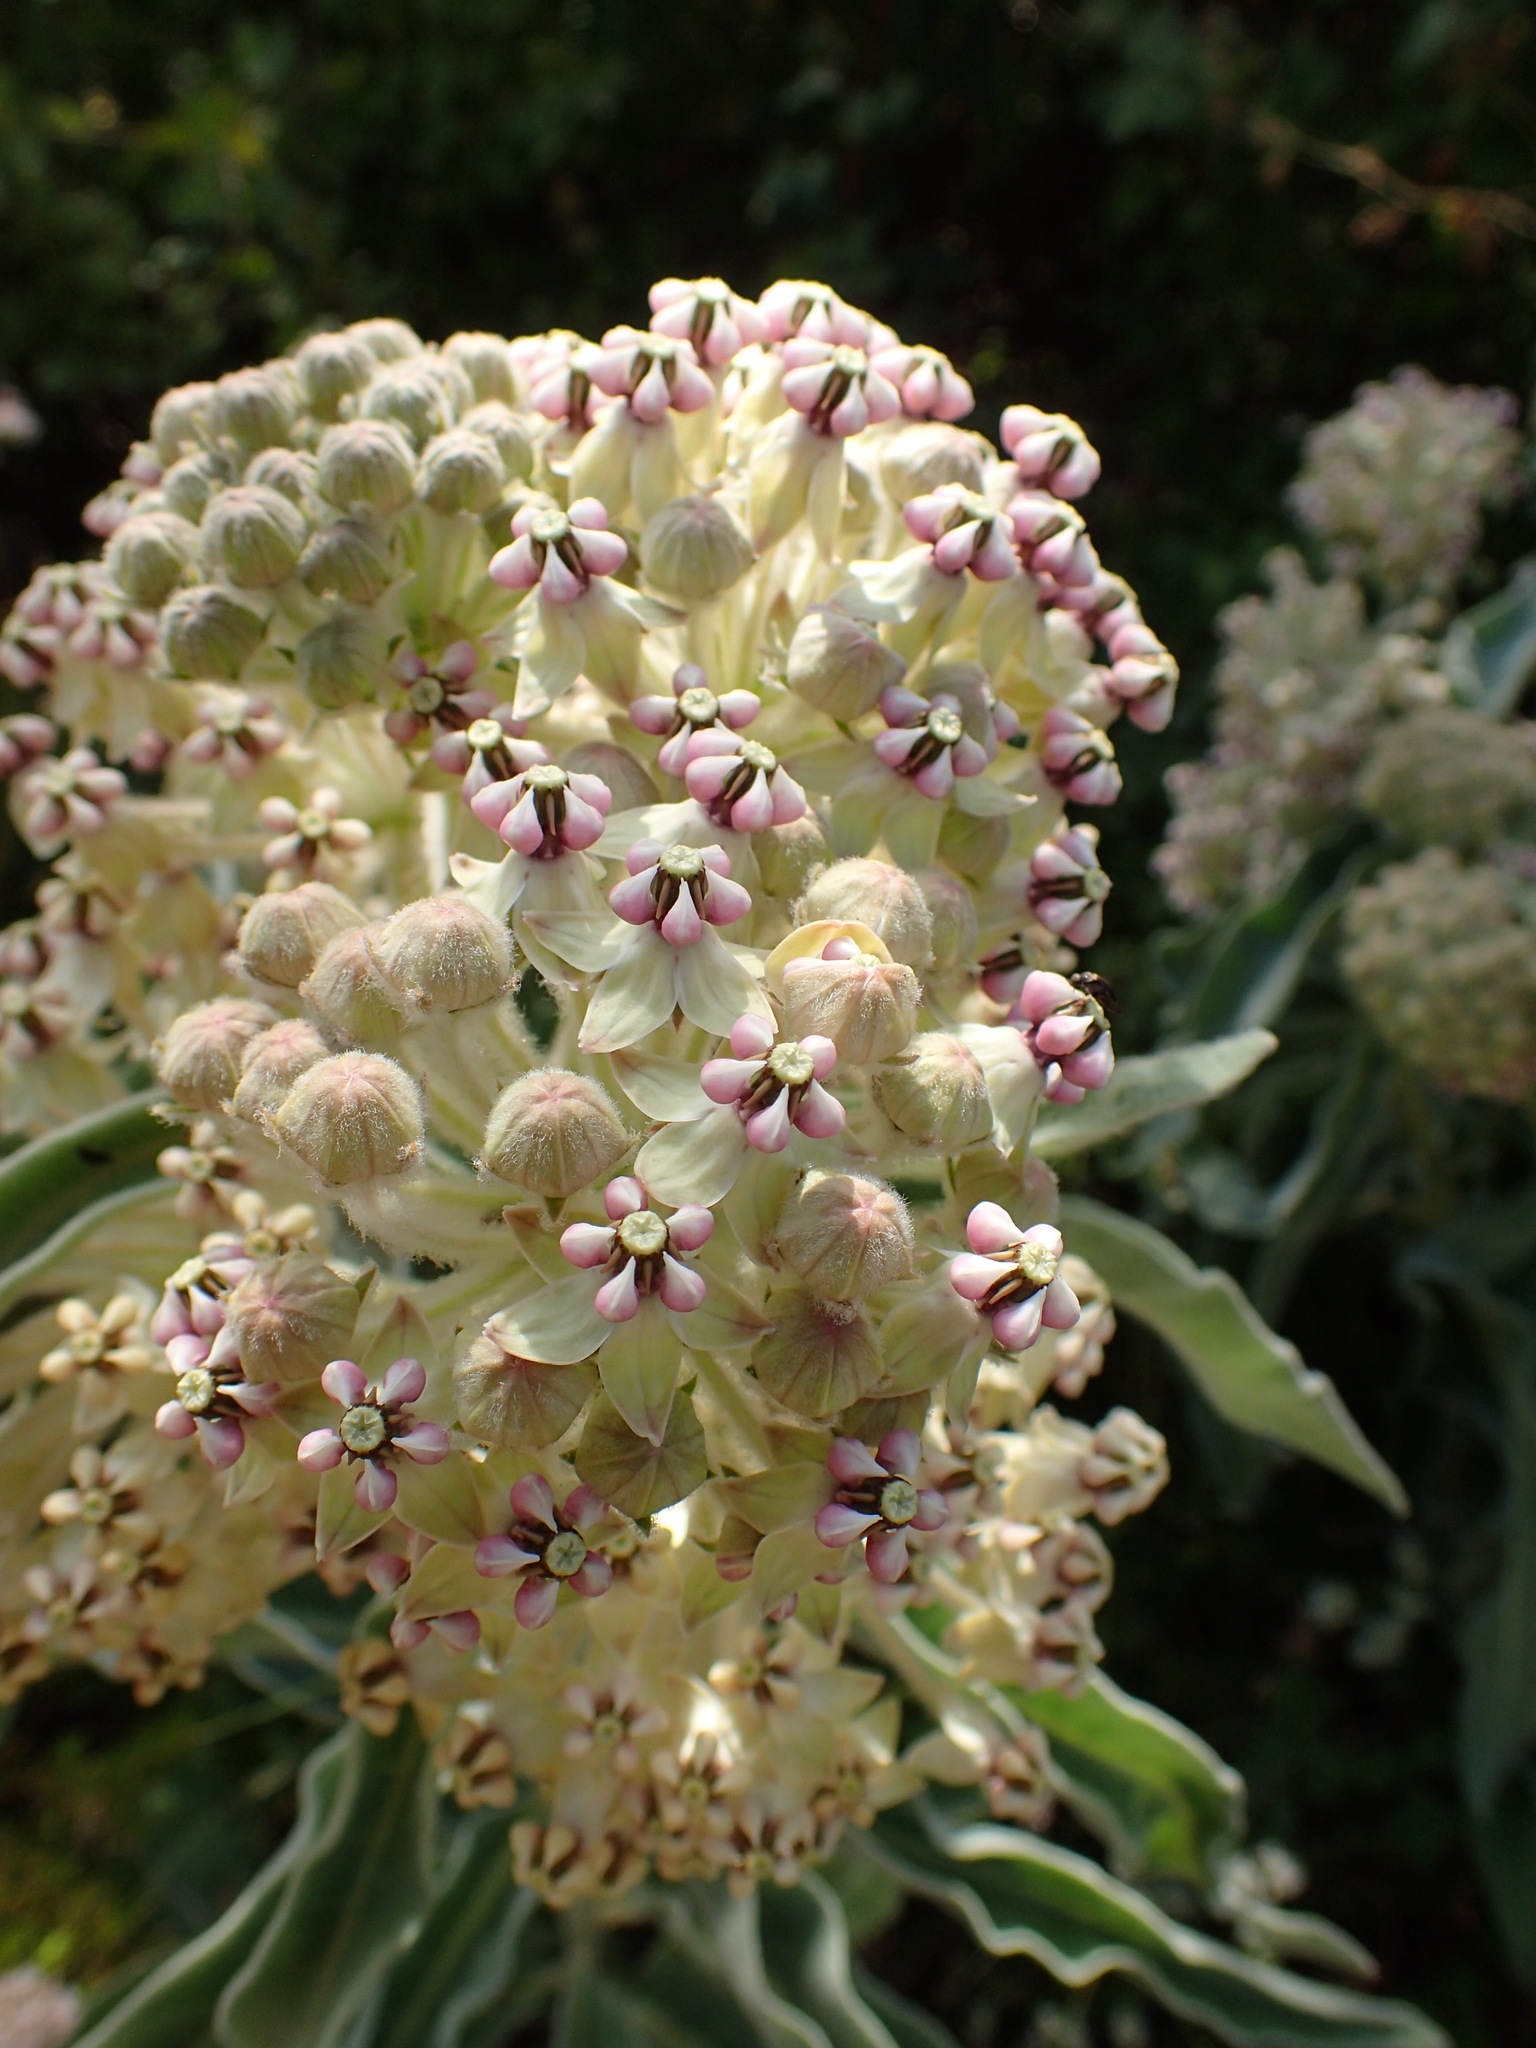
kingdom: Plantae
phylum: Tracheophyta
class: Magnoliopsida
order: Gentianales
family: Apocynaceae
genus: Asclepias
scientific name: Asclepias eriocarpa
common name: Indian milkweed
